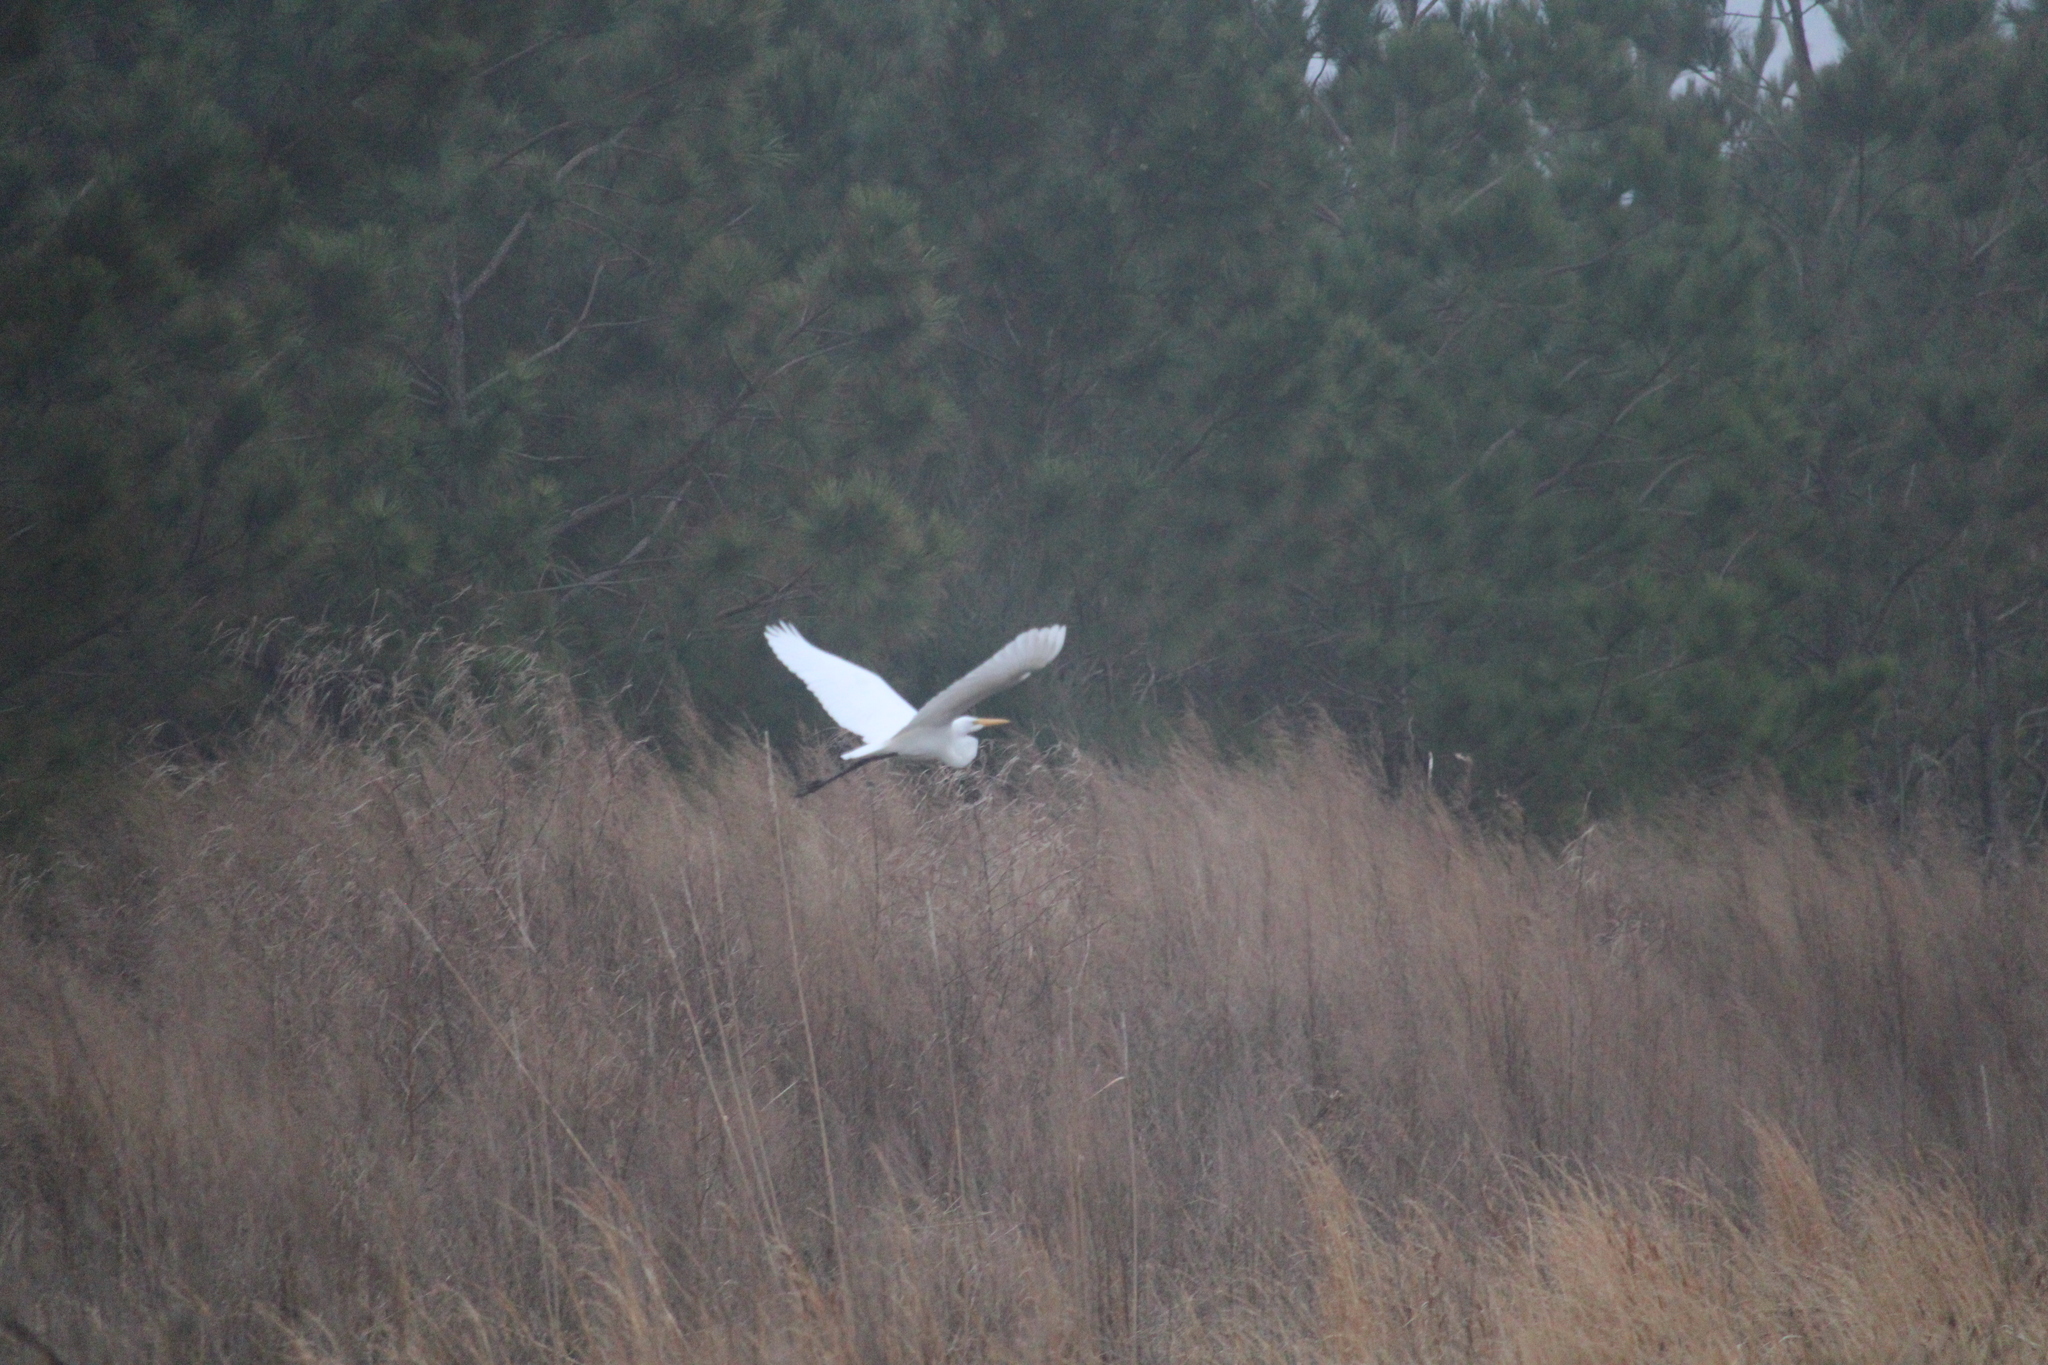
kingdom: Animalia
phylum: Chordata
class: Aves
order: Pelecaniformes
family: Ardeidae
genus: Ardea
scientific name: Ardea alba
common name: Great egret
